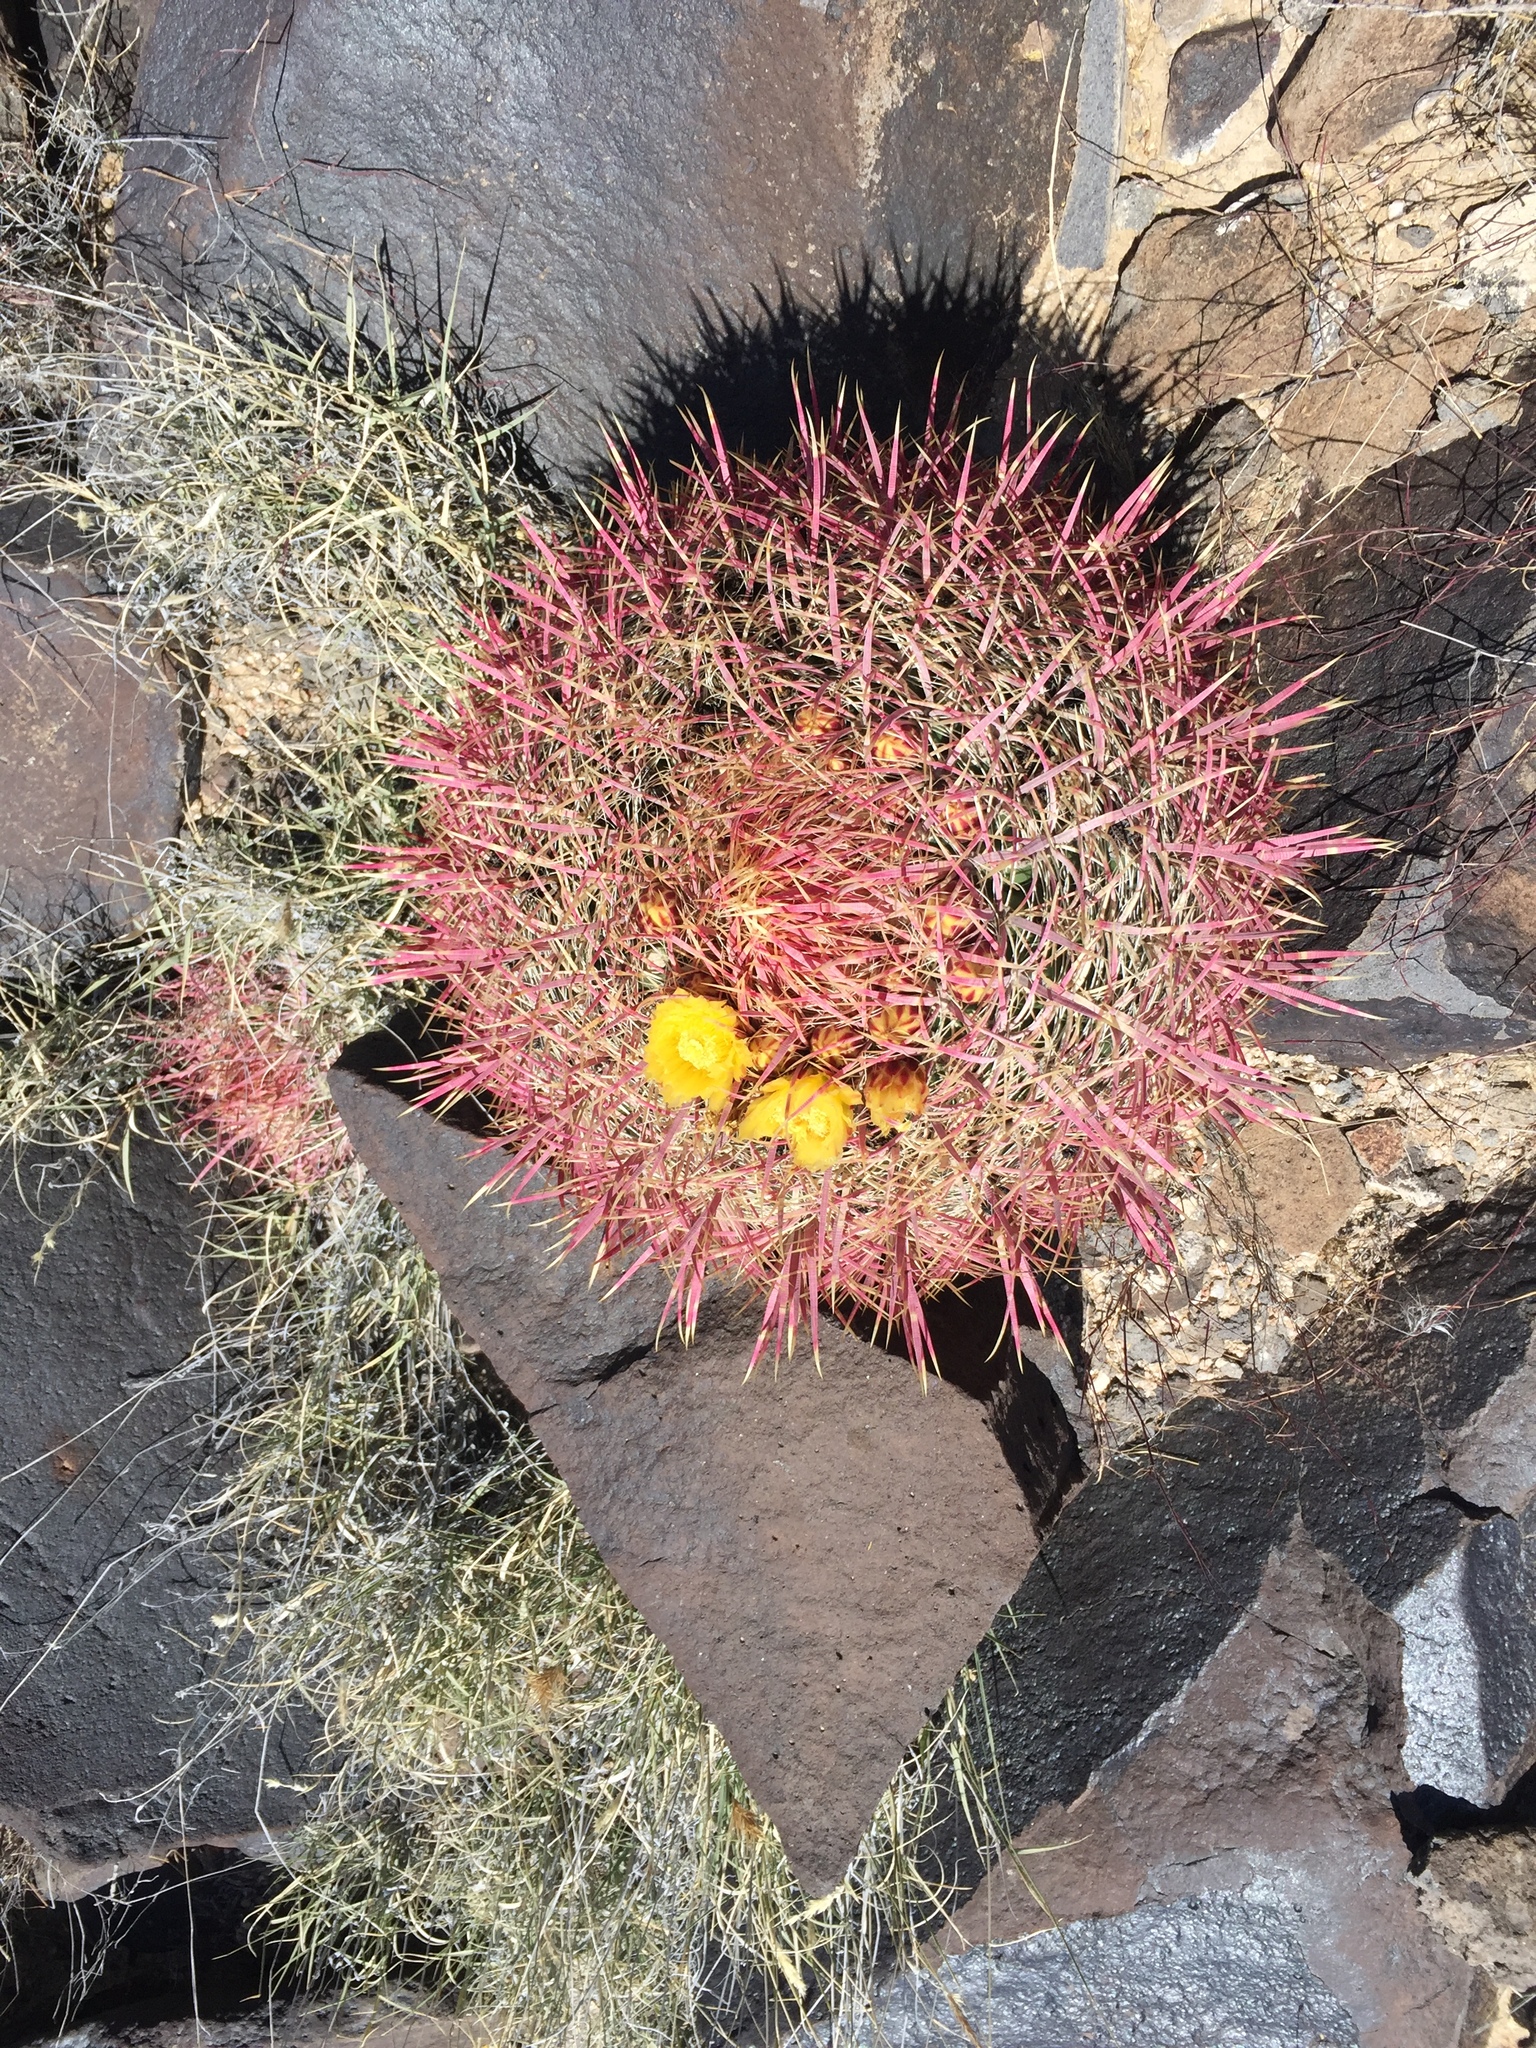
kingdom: Plantae
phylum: Tracheophyta
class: Magnoliopsida
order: Caryophyllales
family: Cactaceae
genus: Ferocactus
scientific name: Ferocactus cylindraceus
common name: California barrel cactus
